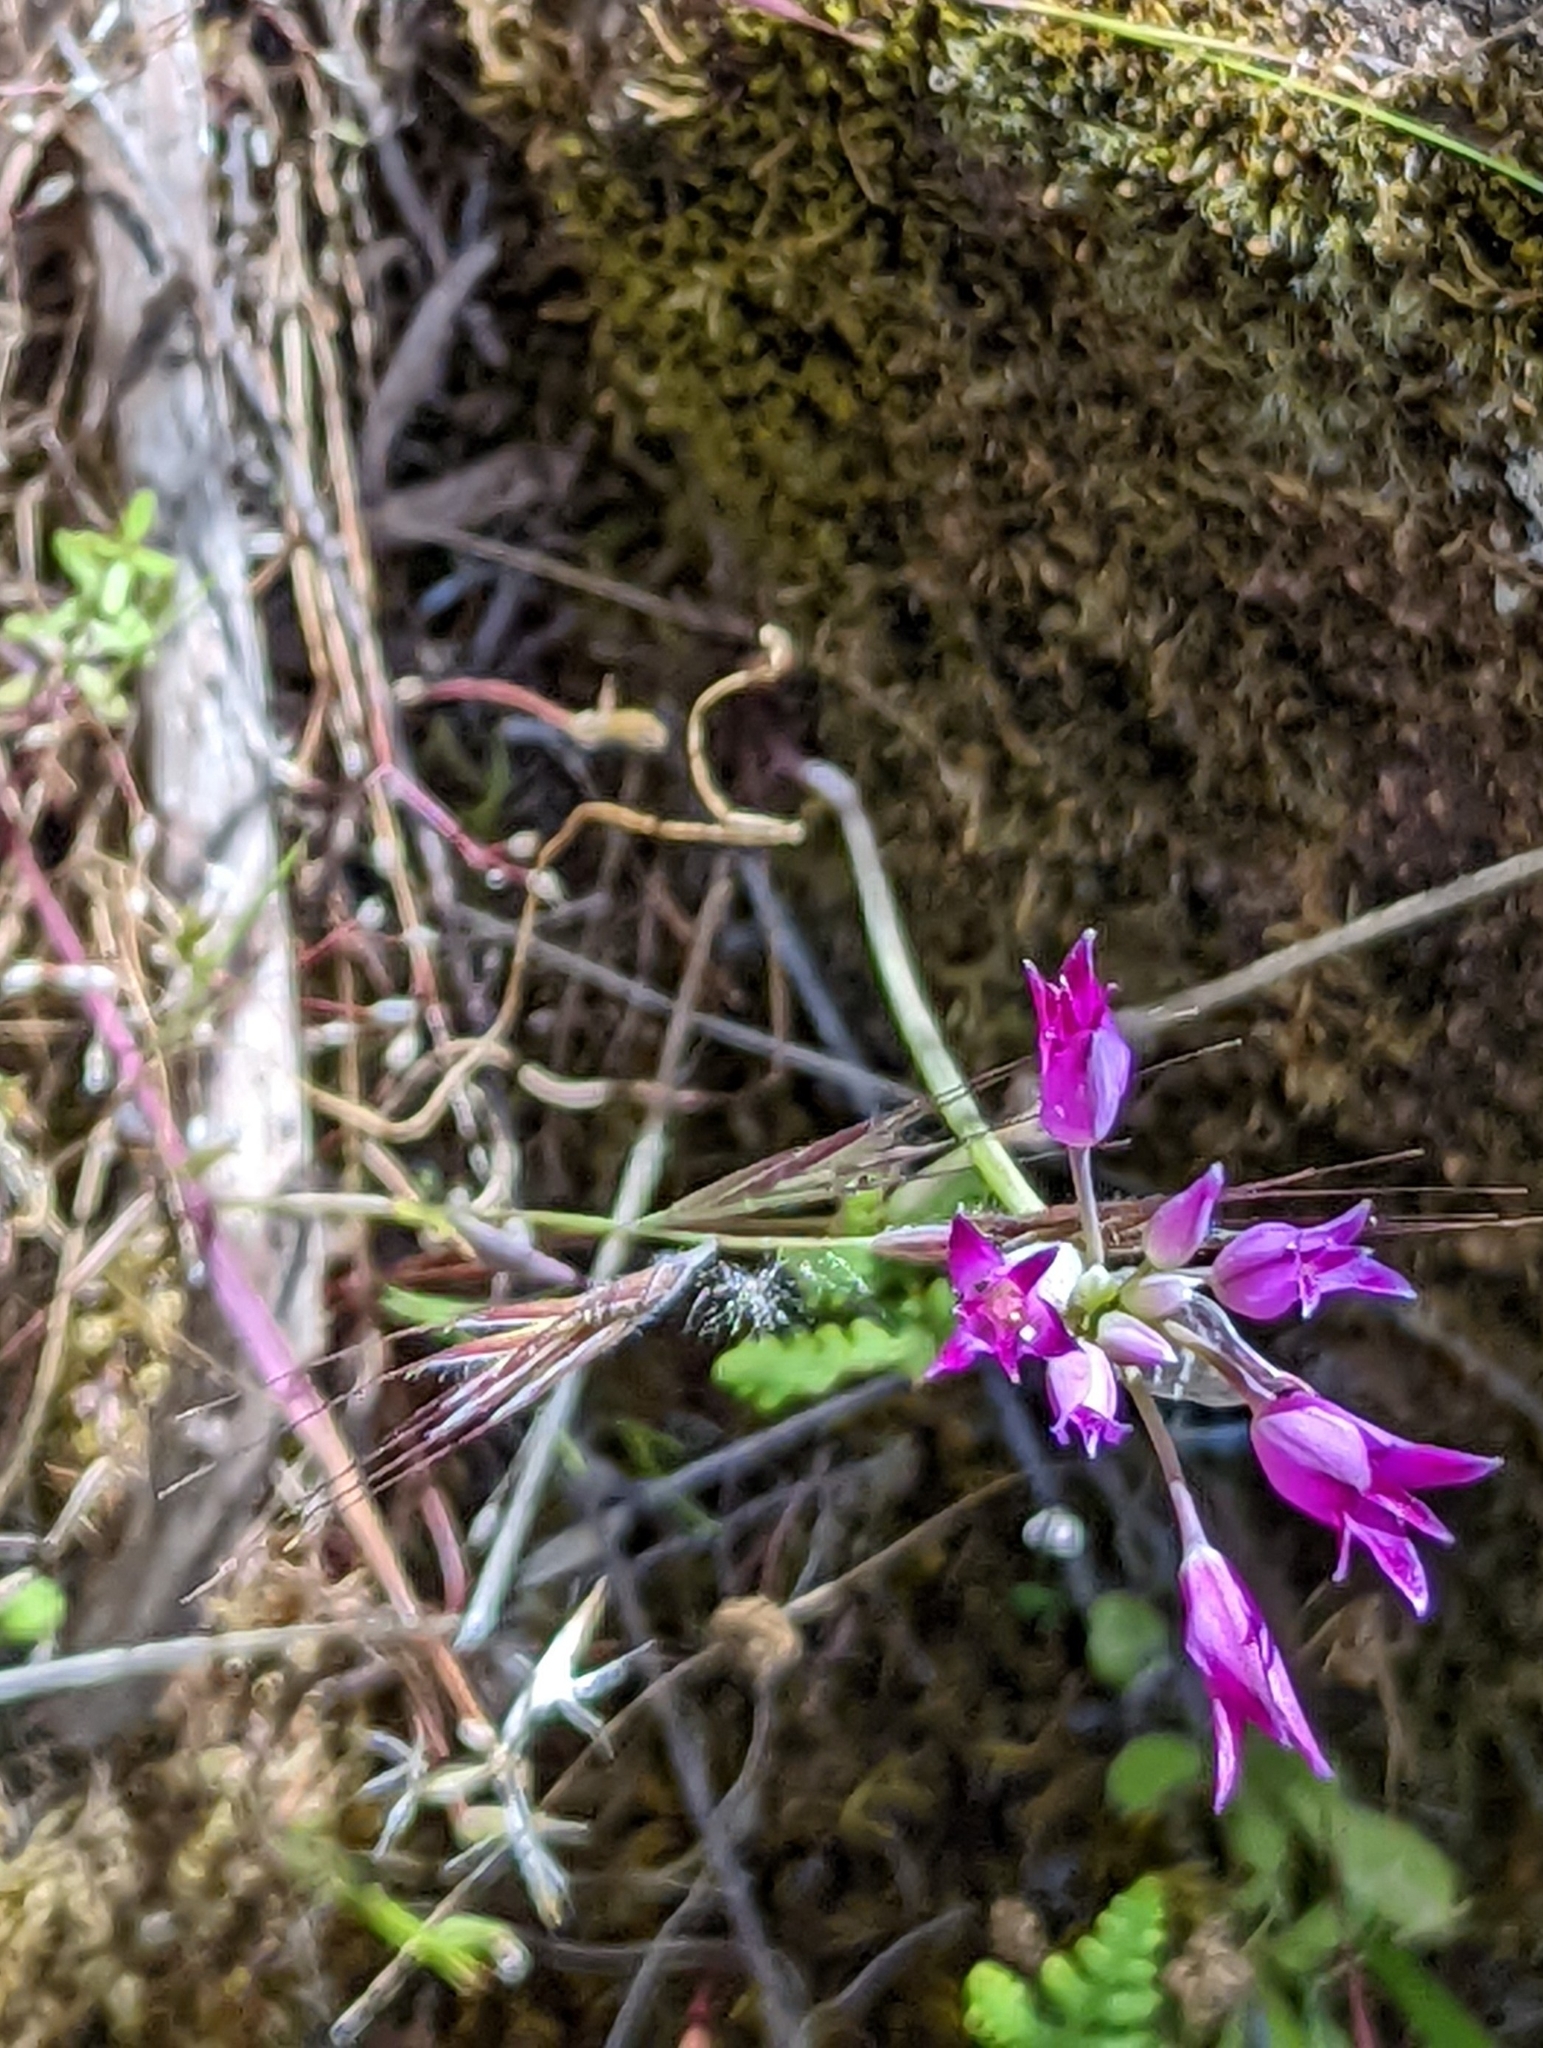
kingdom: Plantae
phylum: Tracheophyta
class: Liliopsida
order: Asparagales
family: Amaryllidaceae
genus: Allium
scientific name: Allium peninsulare
